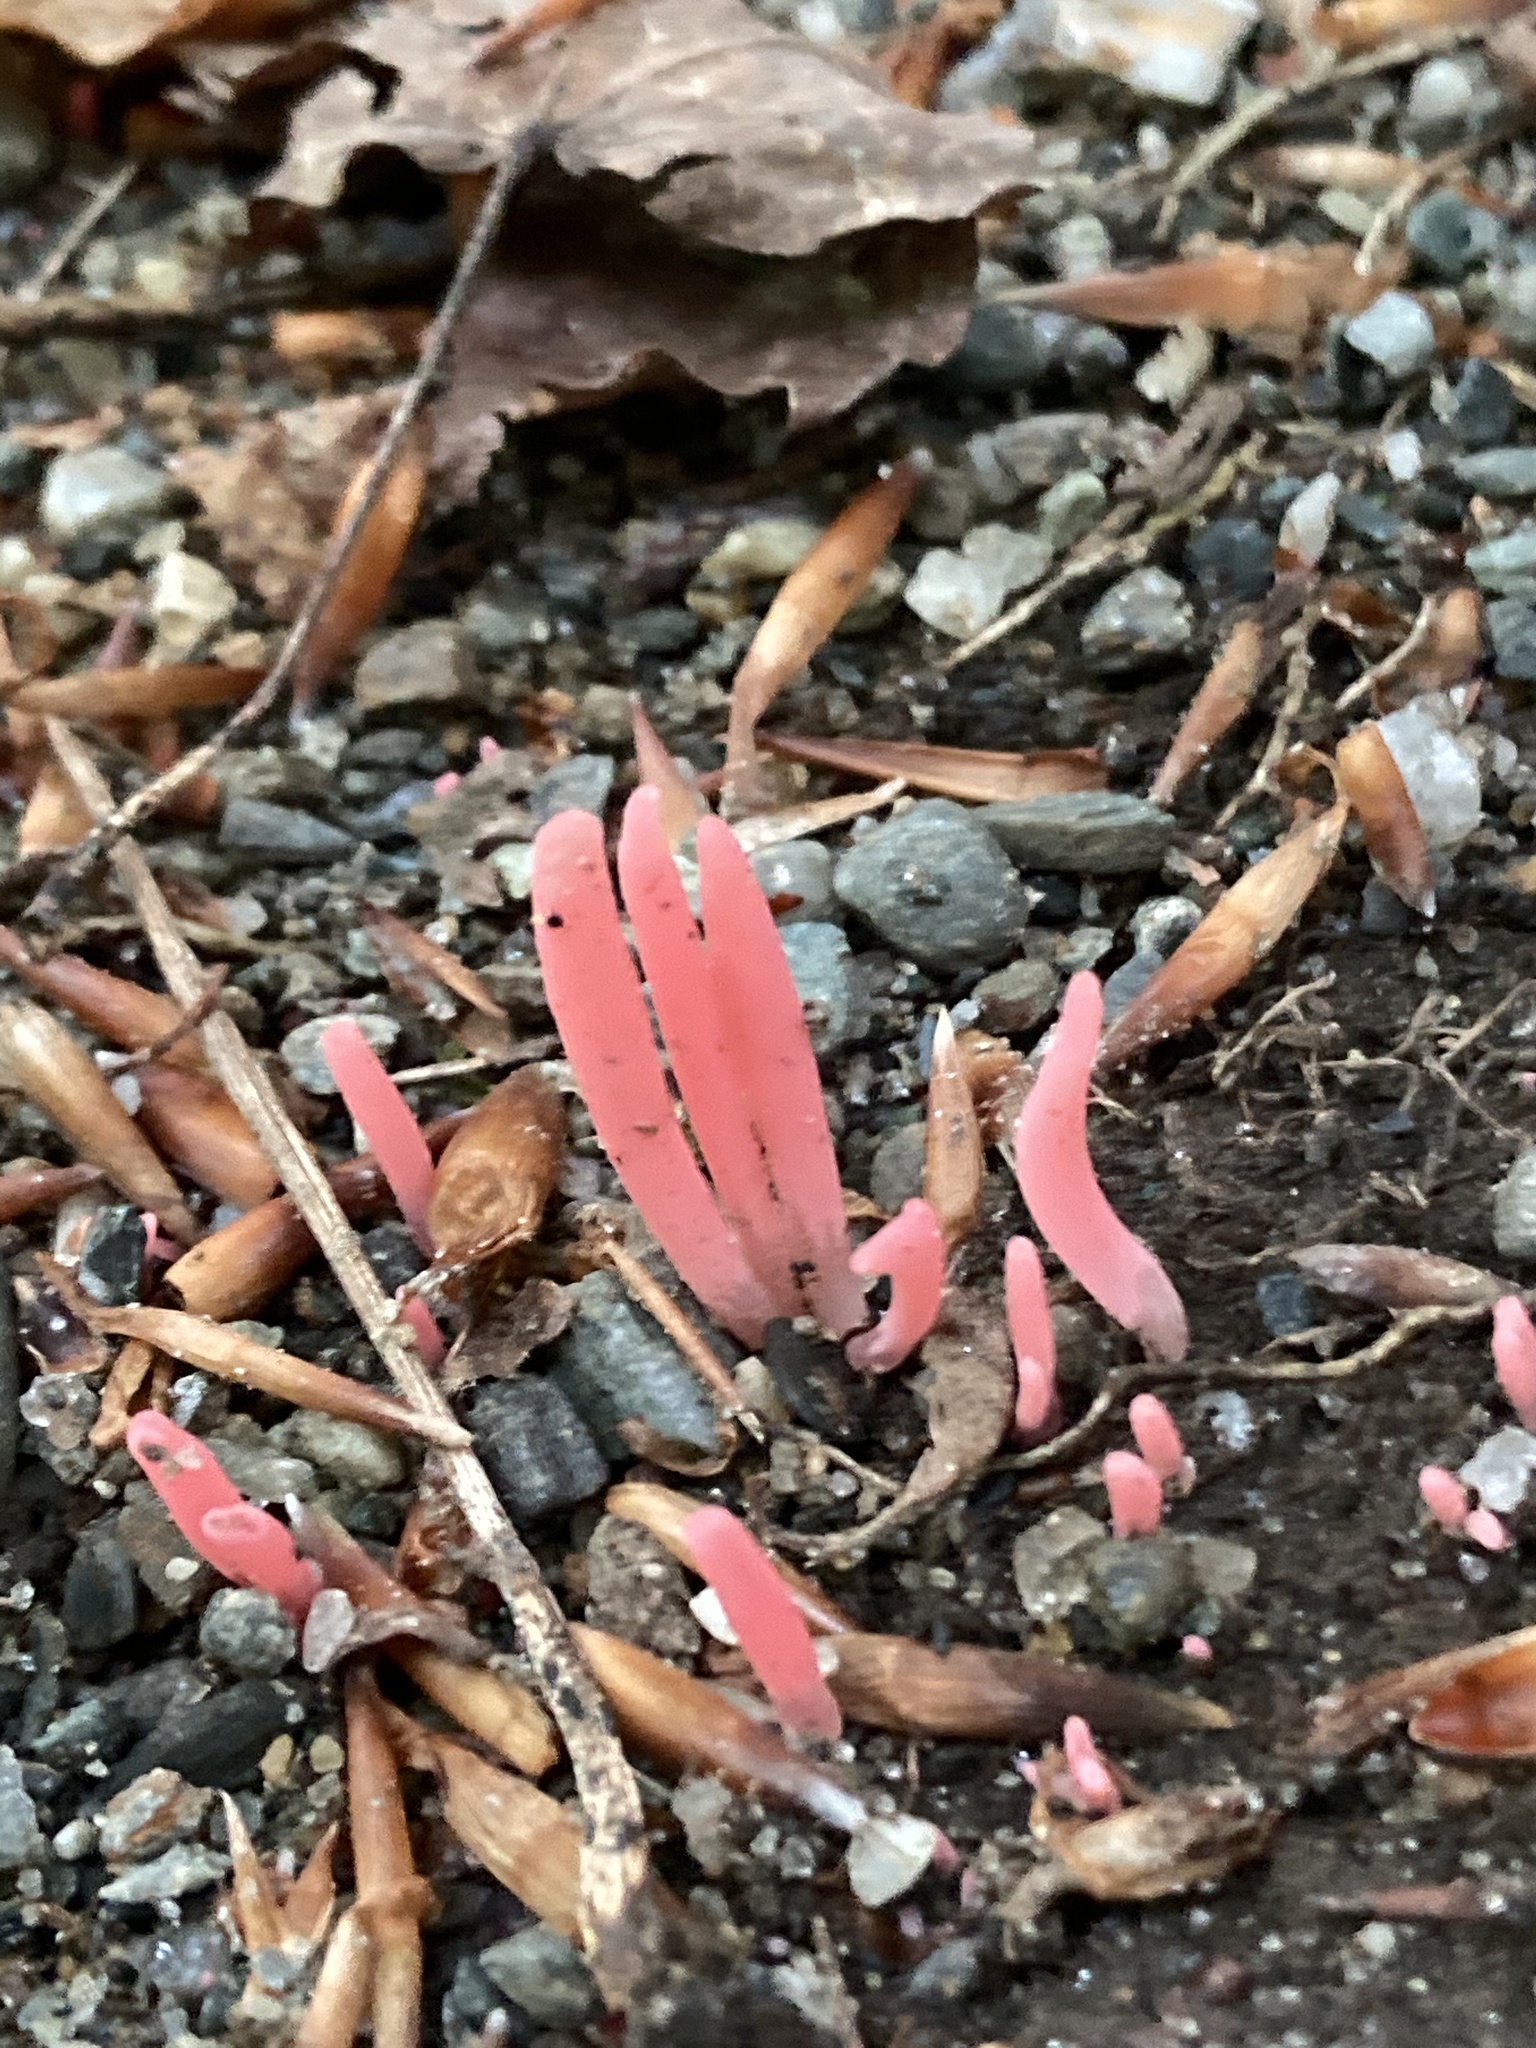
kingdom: Fungi
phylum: Basidiomycota
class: Agaricomycetes
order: Agaricales
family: Clavariaceae
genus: Clavaria
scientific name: Clavaria rosea
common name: Rose spindles
